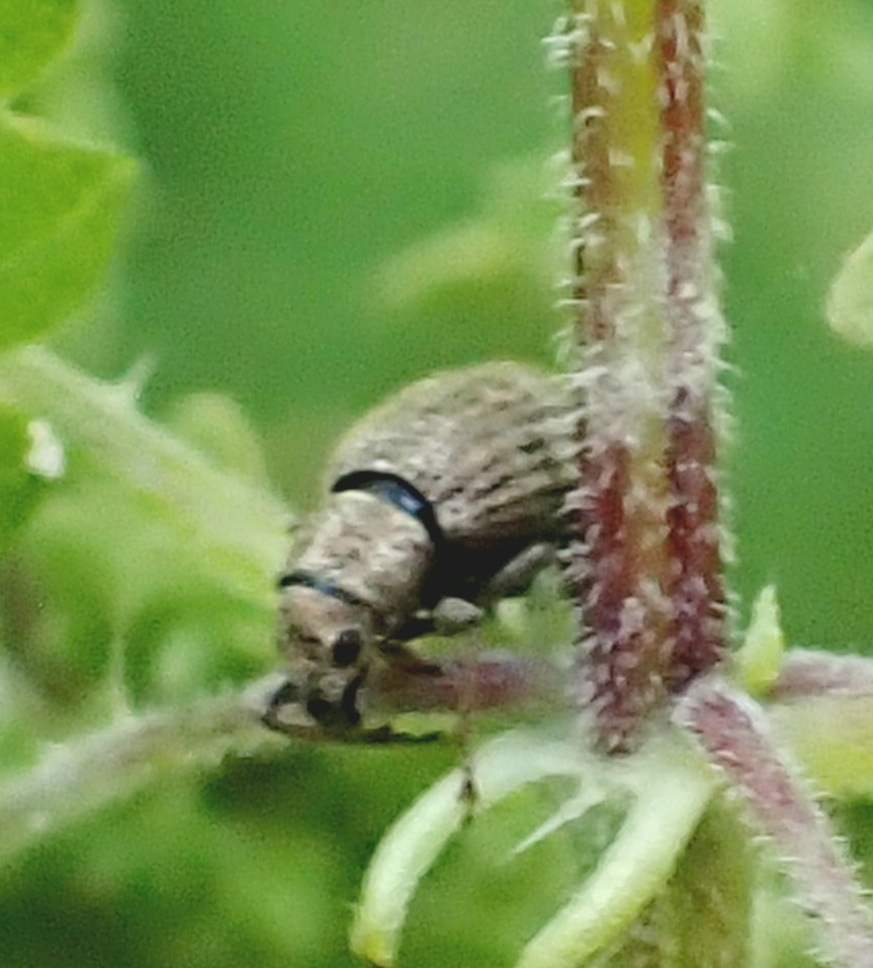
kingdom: Animalia
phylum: Arthropoda
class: Insecta
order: Coleoptera
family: Curculionidae
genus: Sciaphilus
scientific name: Sciaphilus asperatus
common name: Weevil
